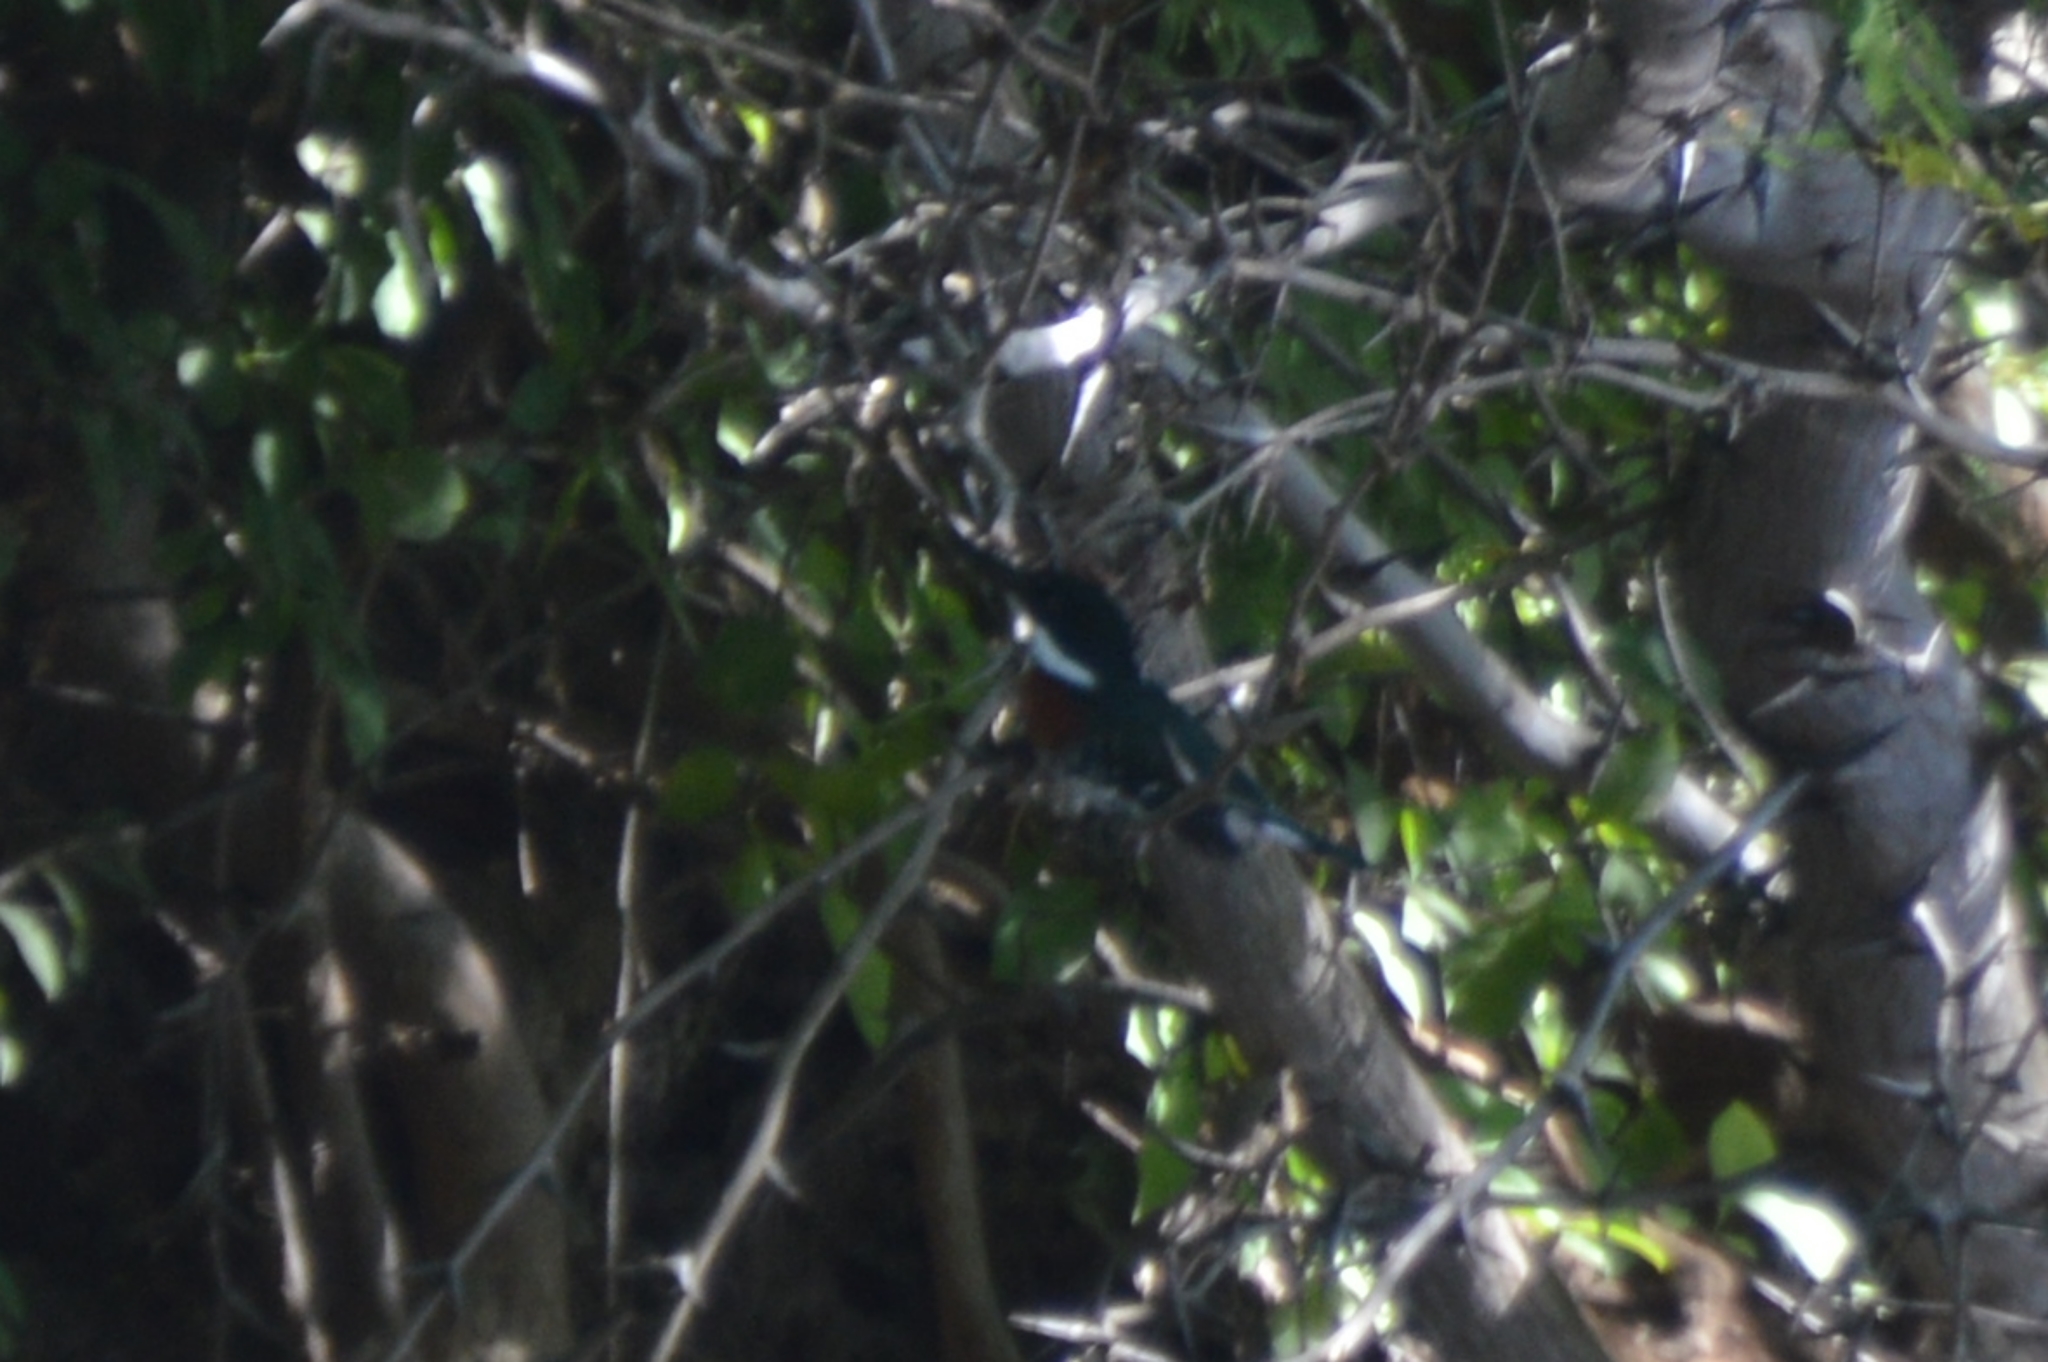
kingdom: Animalia
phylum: Chordata
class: Aves
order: Coraciiformes
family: Alcedinidae
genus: Chloroceryle
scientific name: Chloroceryle americana
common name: Green kingfisher
